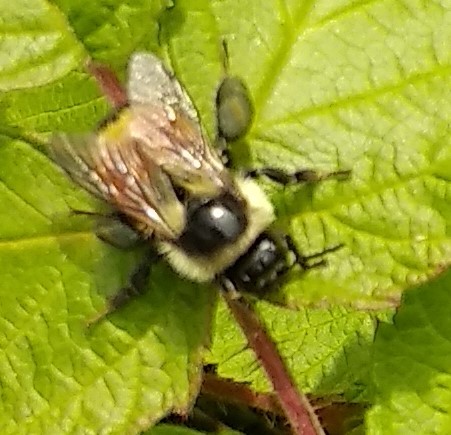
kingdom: Animalia
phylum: Arthropoda
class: Insecta
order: Hymenoptera
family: Apidae
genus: Bombus
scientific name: Bombus ternarius
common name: Tri-colored bumble bee
